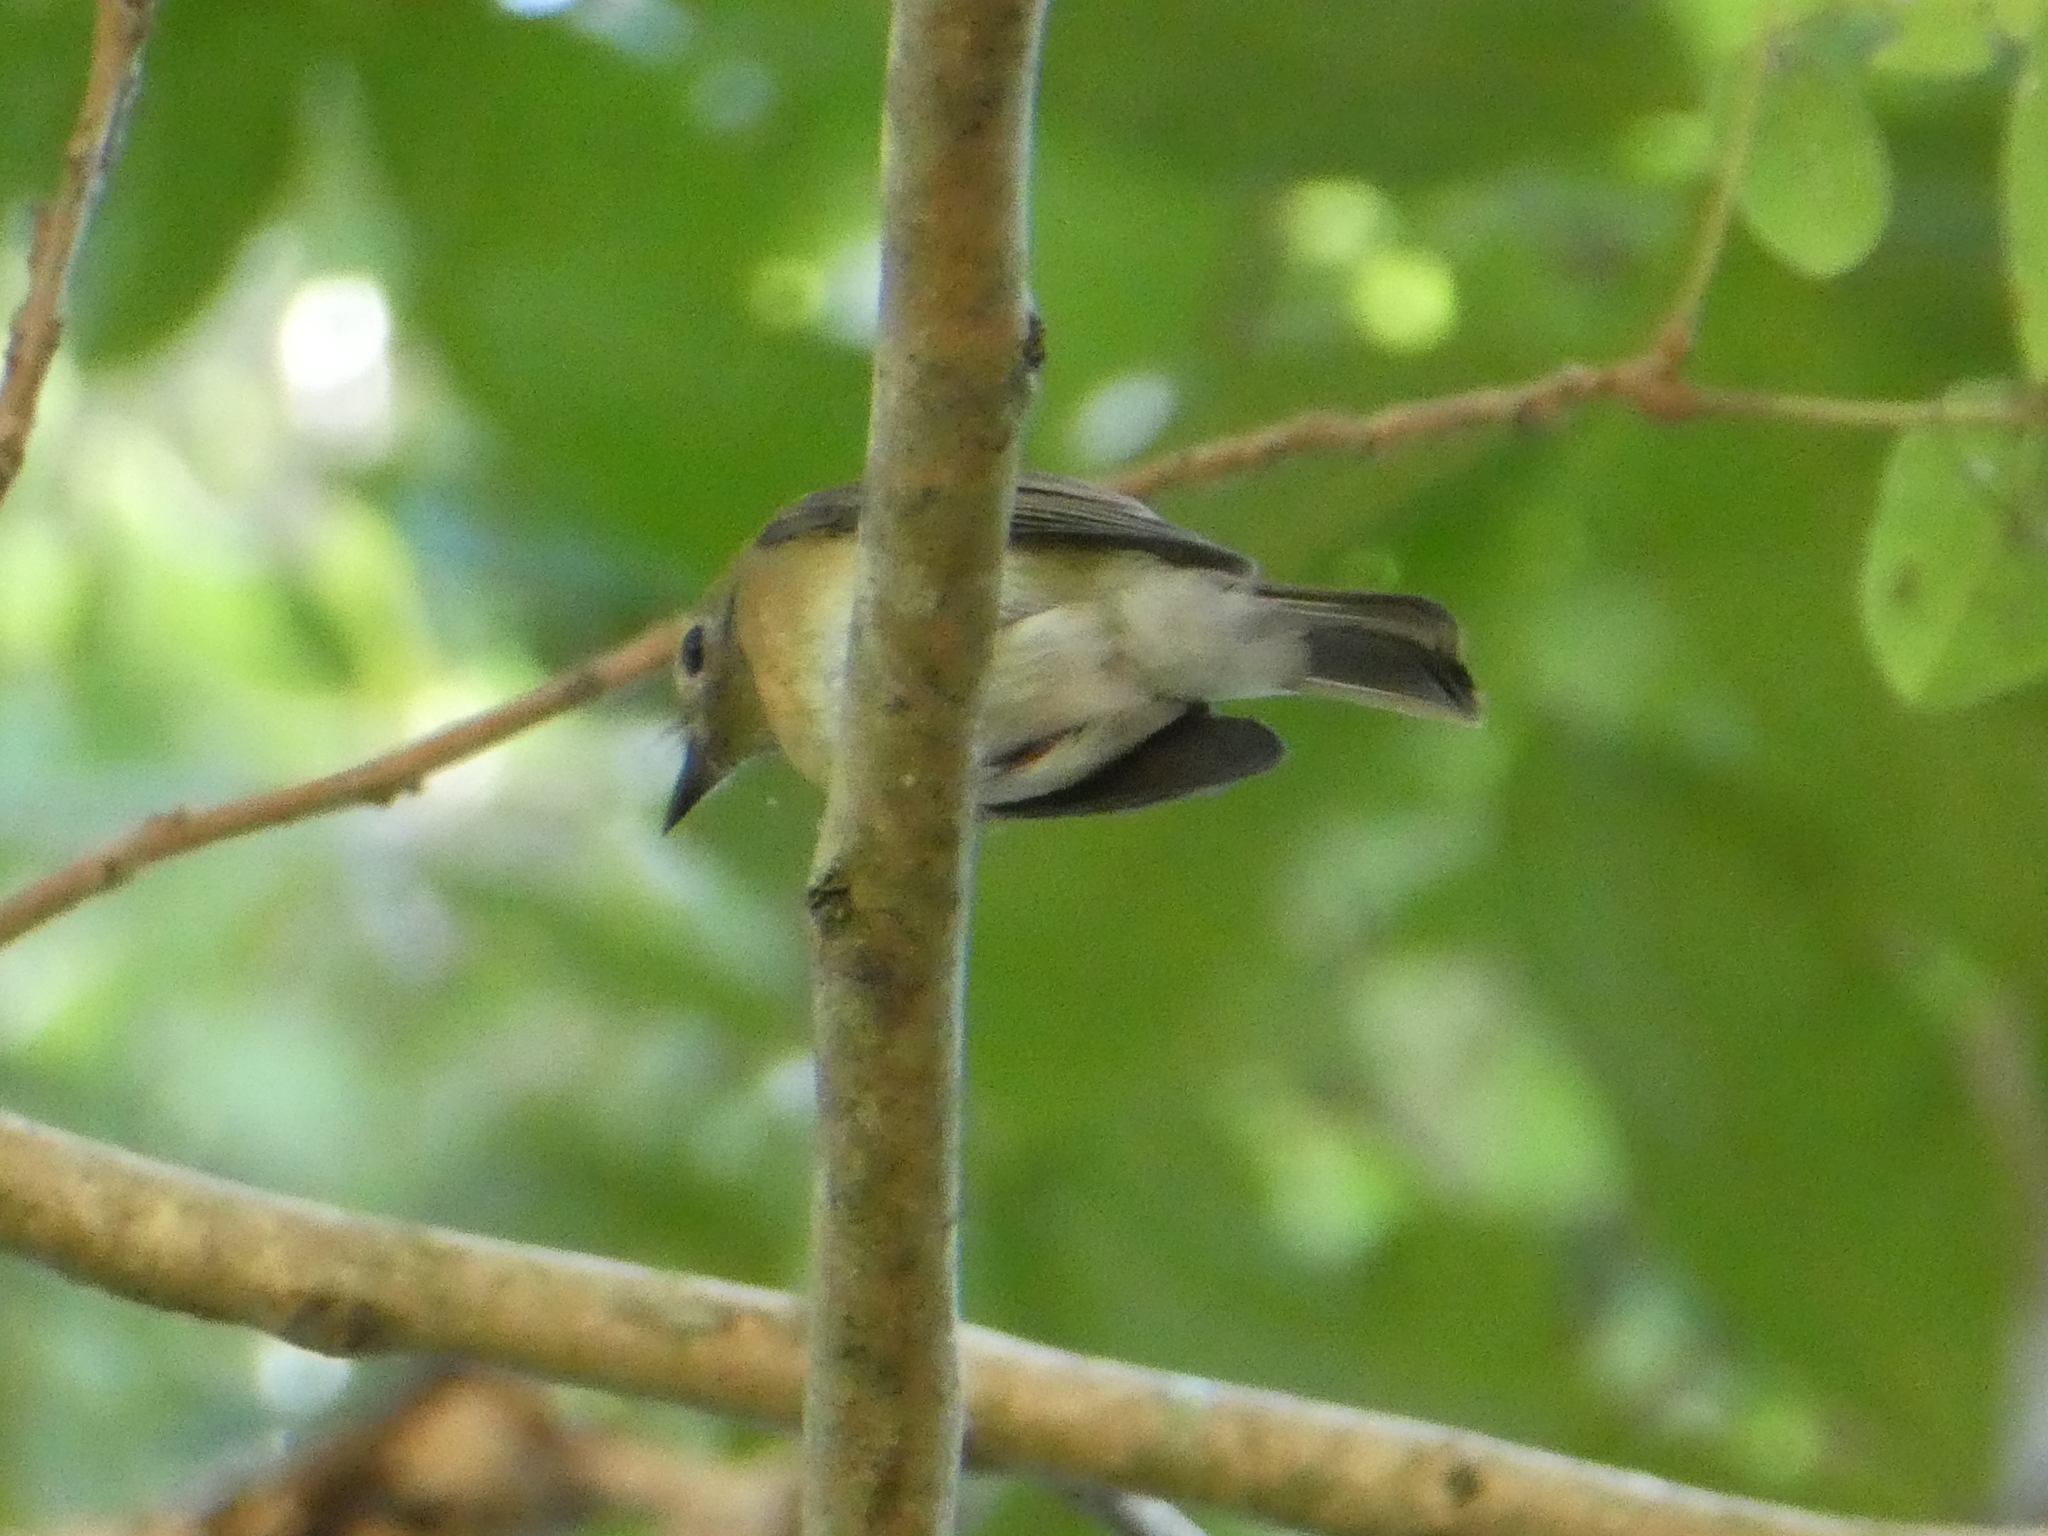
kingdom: Animalia
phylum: Chordata
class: Aves
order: Passeriformes
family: Muscicapidae
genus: Cyornis
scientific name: Cyornis hainanus
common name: Hainan blue flycatcher
